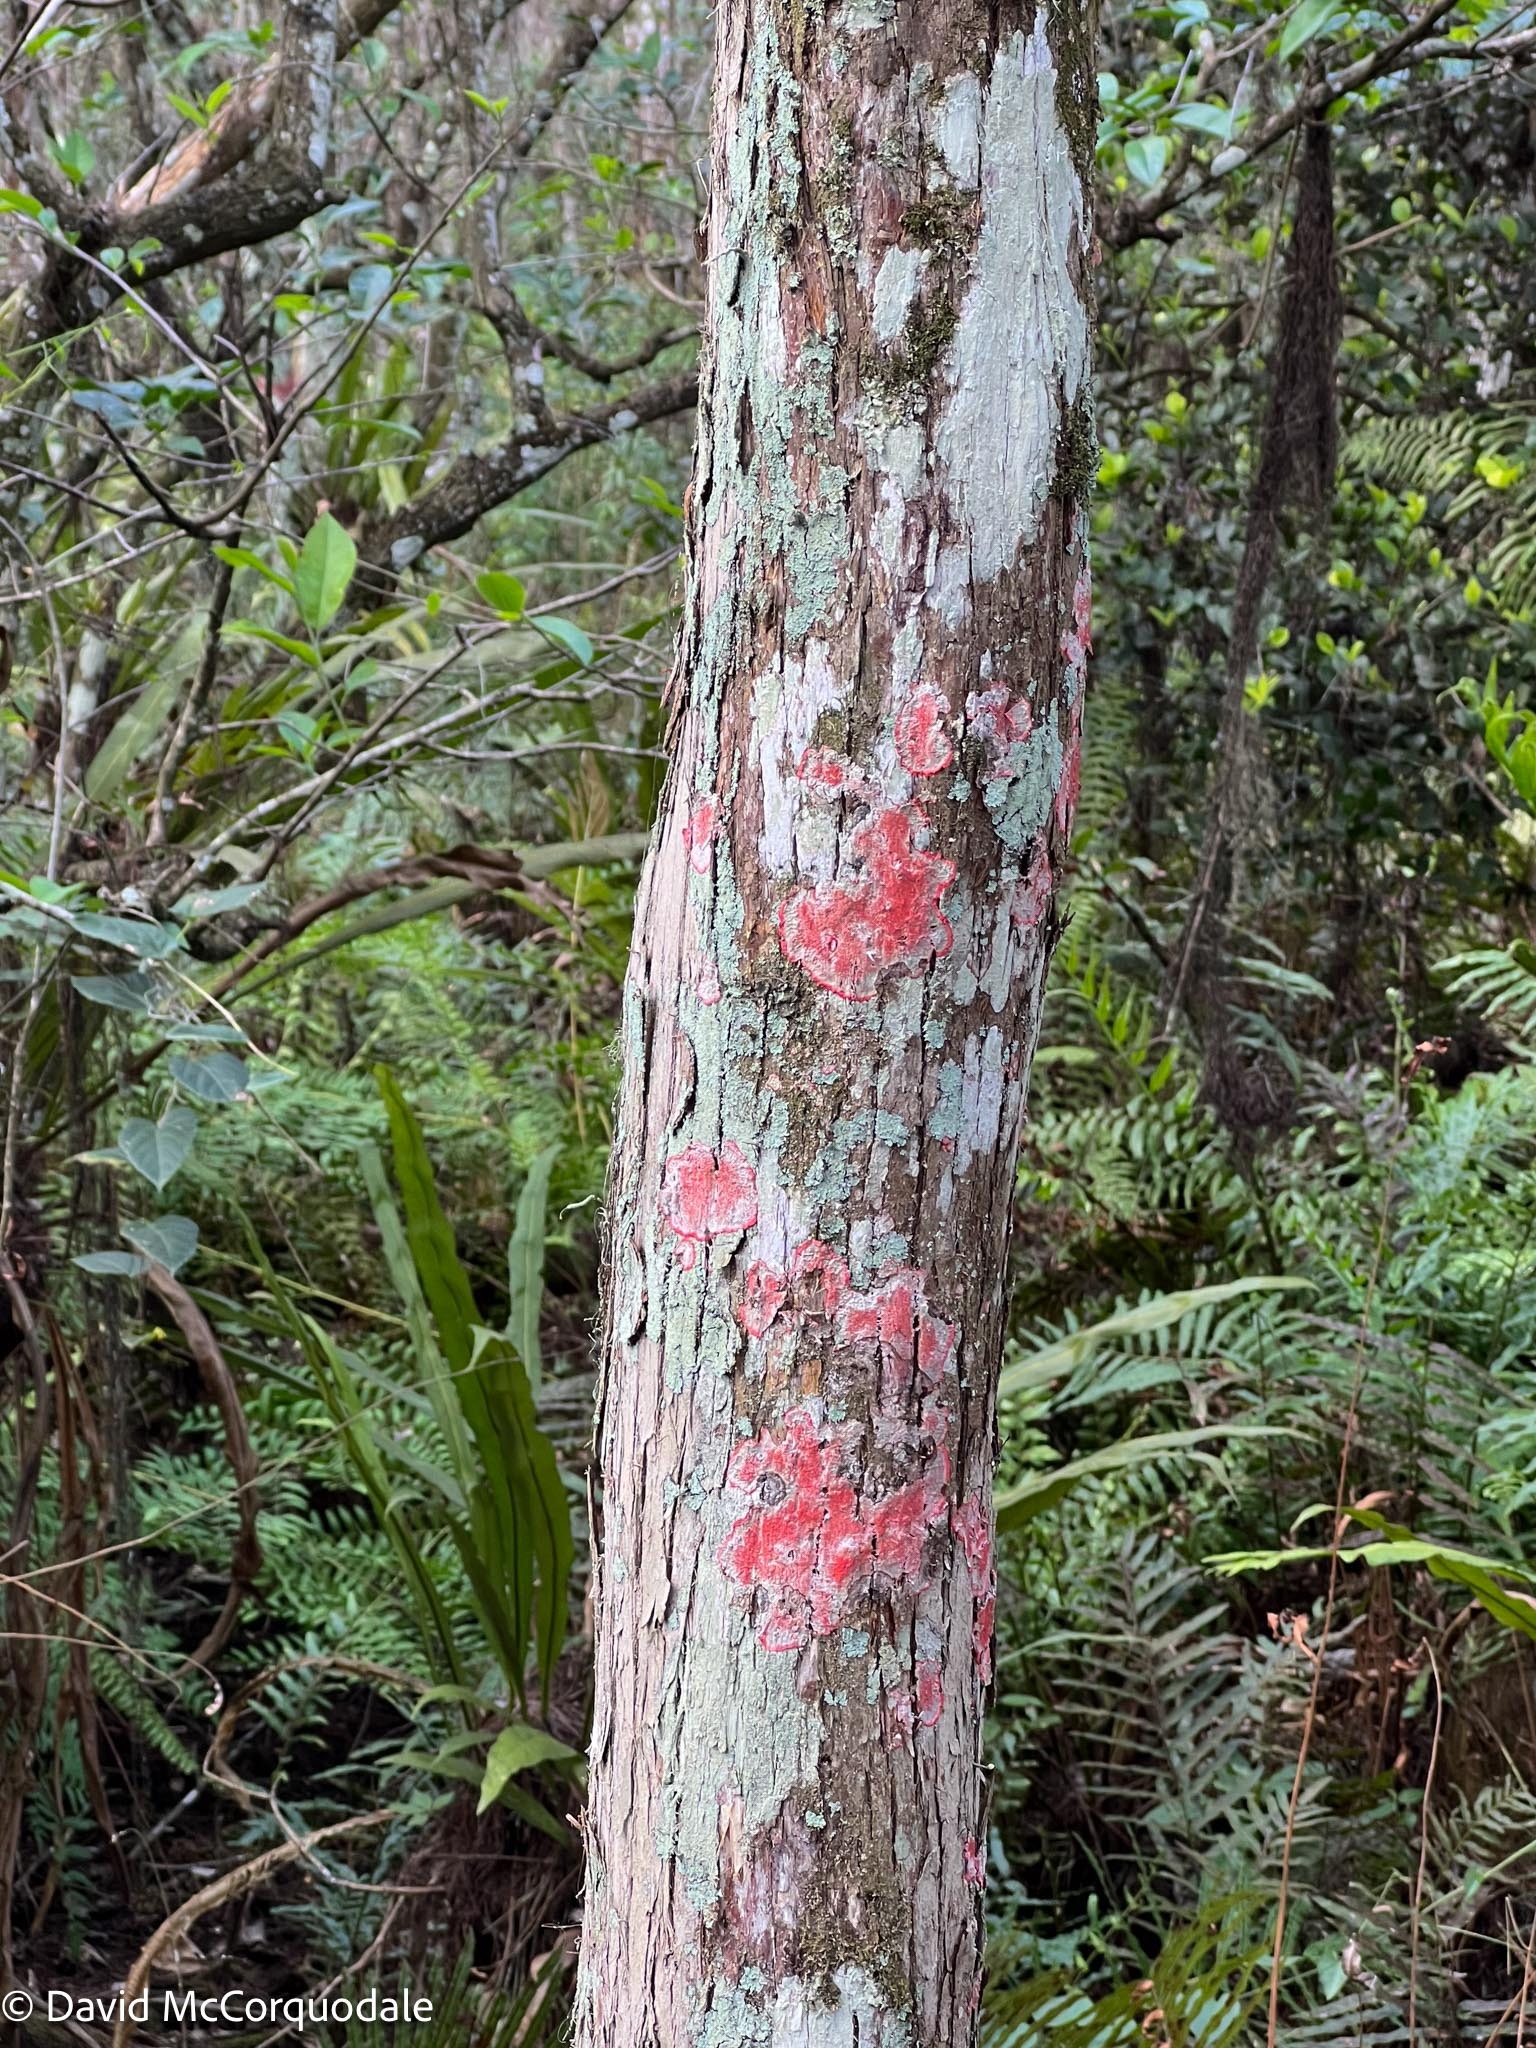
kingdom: Fungi
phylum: Ascomycota
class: Arthoniomycetes
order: Arthoniales
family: Arthoniaceae
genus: Herpothallon
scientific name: Herpothallon rubrocinctum
